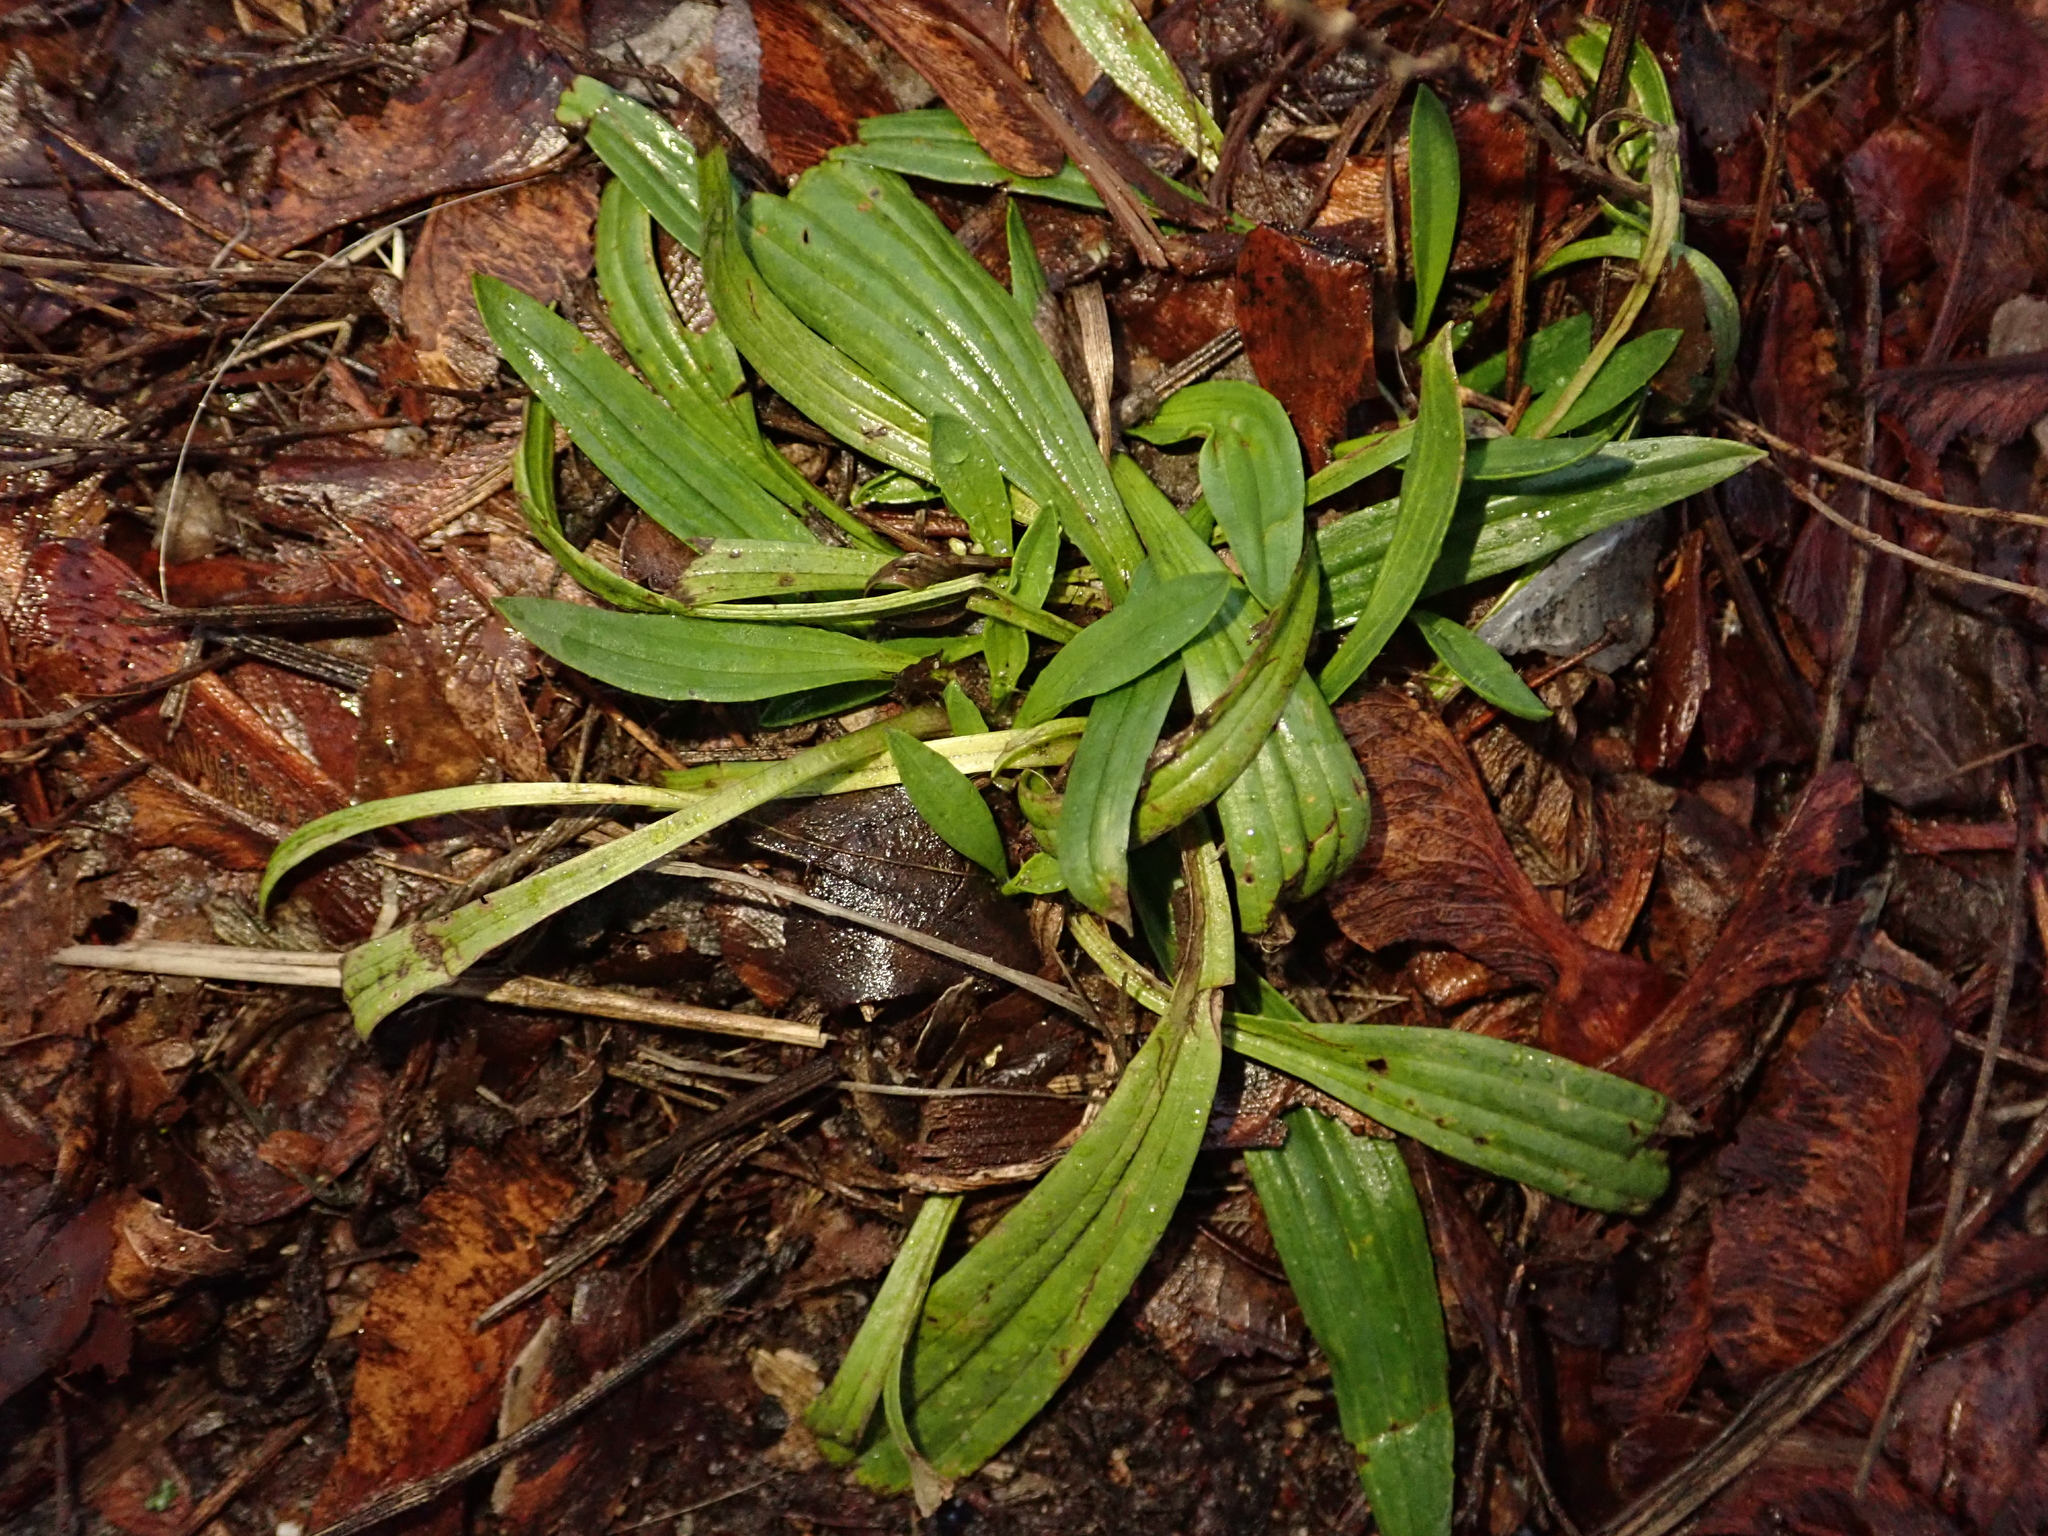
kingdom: Plantae
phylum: Tracheophyta
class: Magnoliopsida
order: Lamiales
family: Plantaginaceae
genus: Plantago
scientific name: Plantago lanceolata
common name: Ribwort plantain
